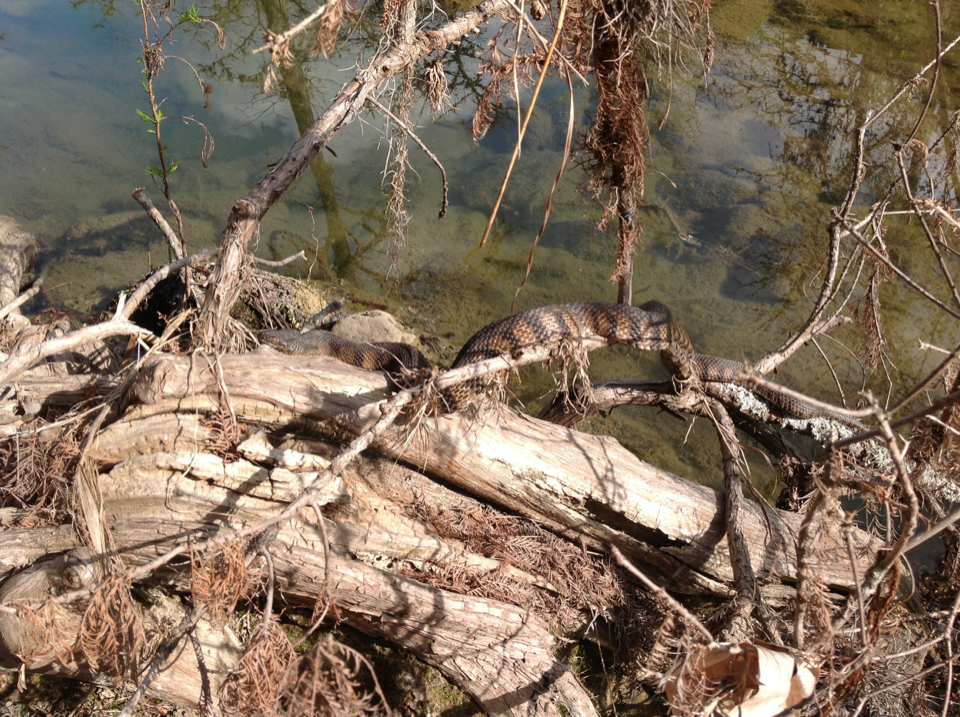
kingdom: Animalia
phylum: Chordata
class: Squamata
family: Colubridae
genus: Nerodia
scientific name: Nerodia rhombifer
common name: Diamondback water snake
